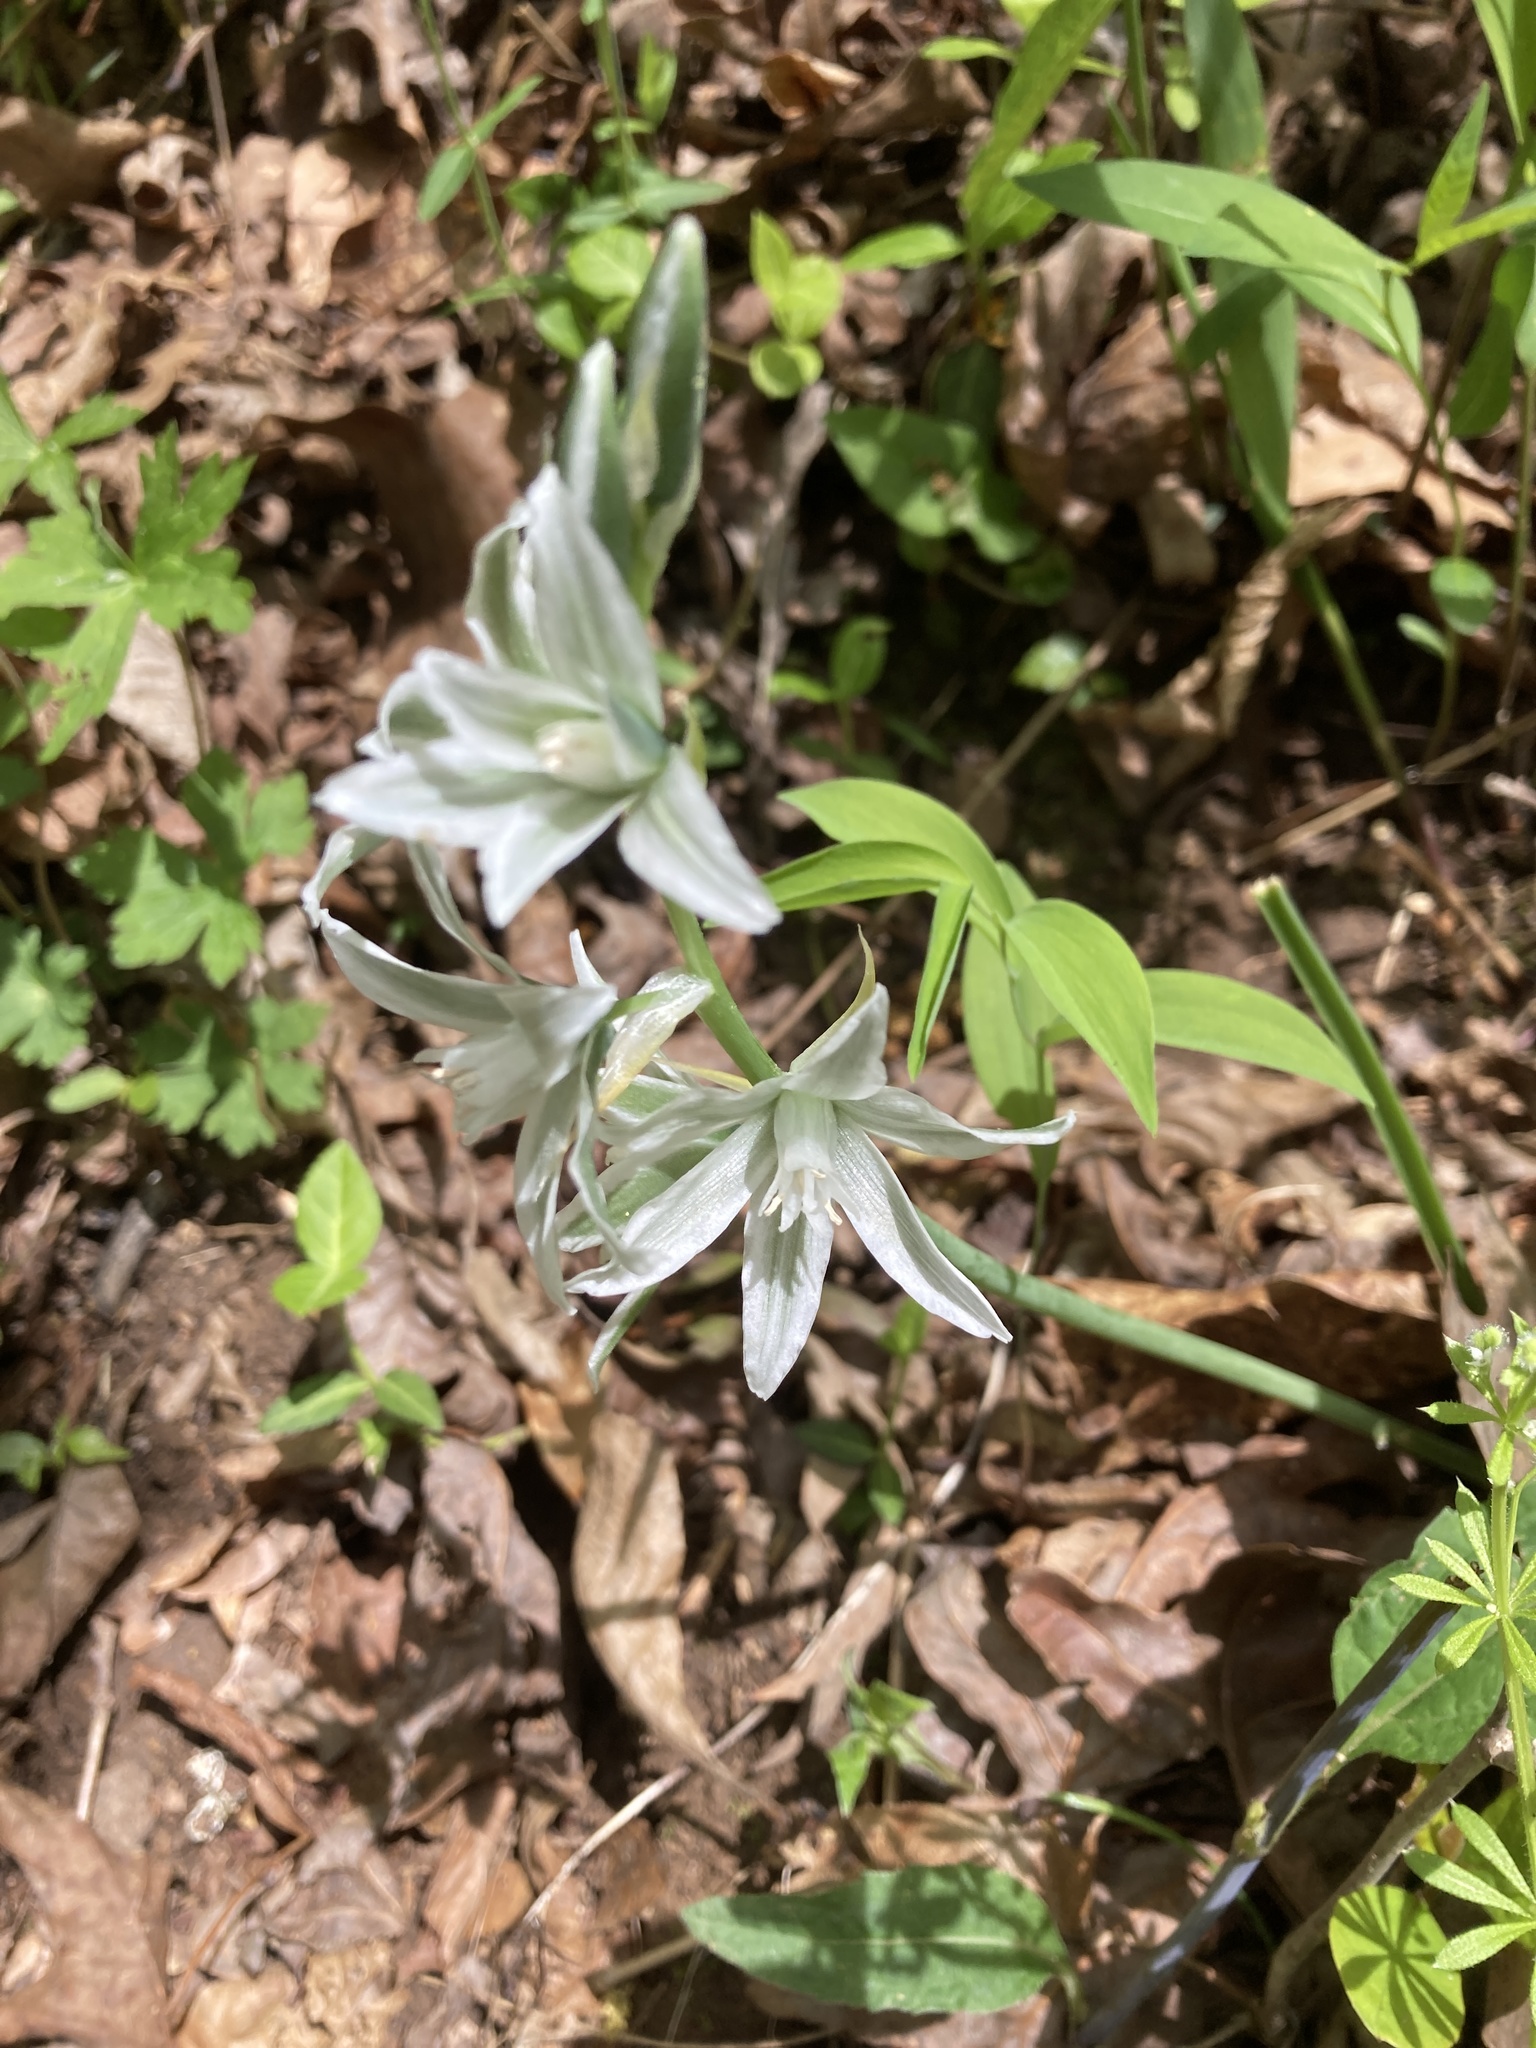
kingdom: Plantae
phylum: Tracheophyta
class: Liliopsida
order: Asparagales
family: Asparagaceae
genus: Ornithogalum
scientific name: Ornithogalum nutans
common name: Drooping star-of-bethlehem
